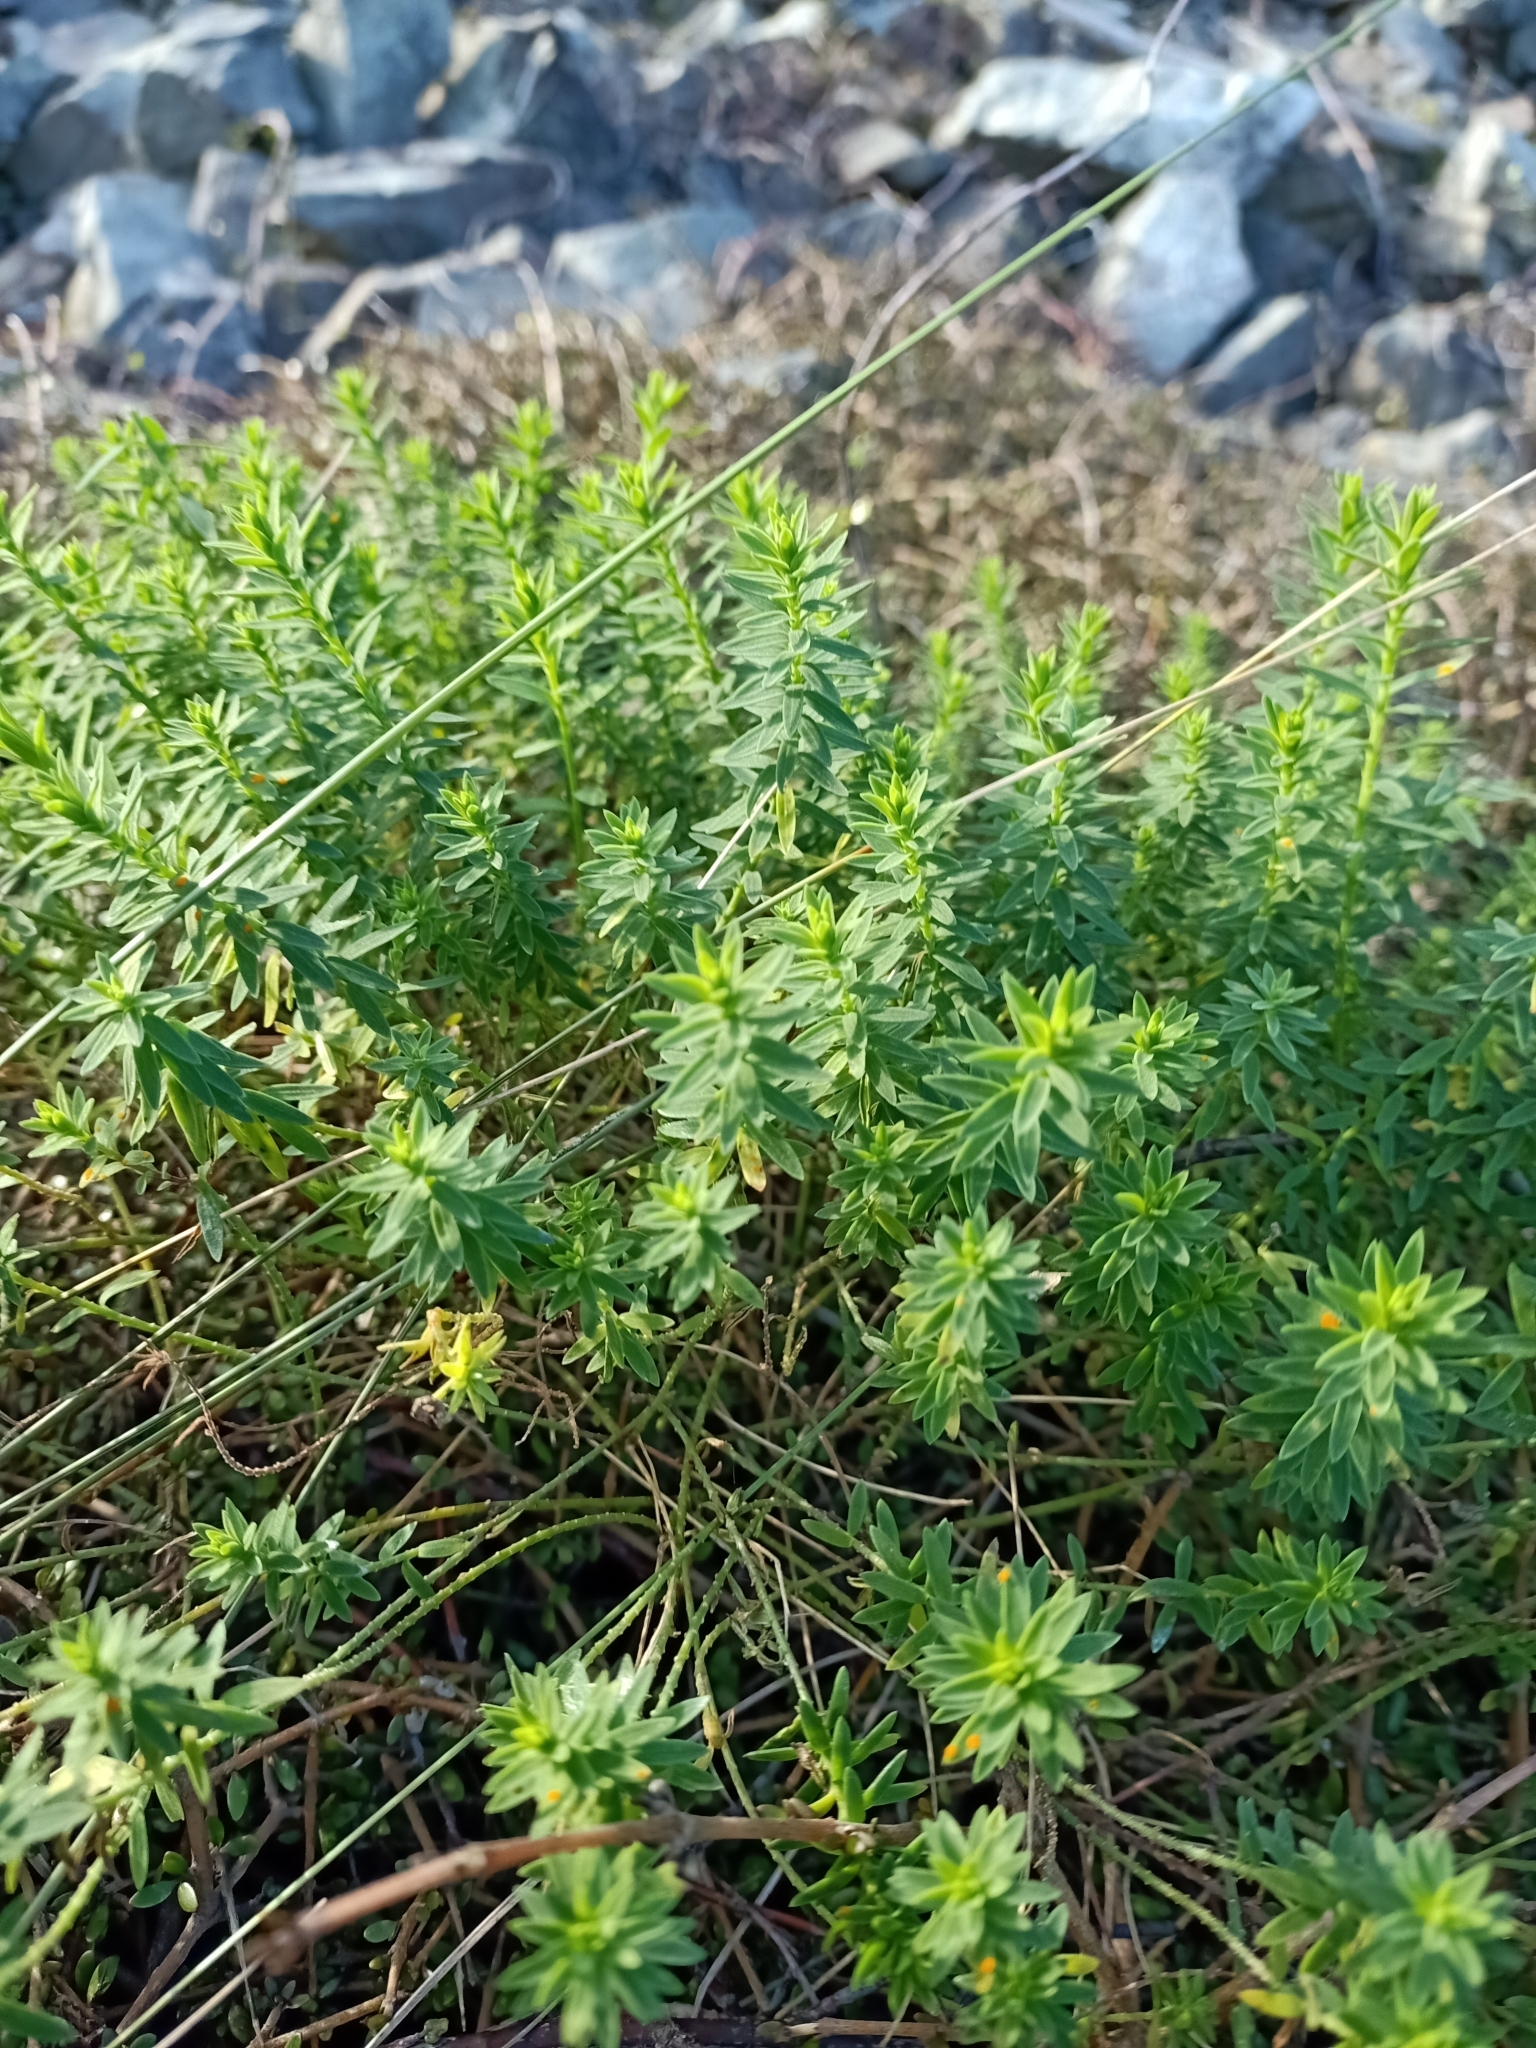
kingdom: Plantae
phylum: Tracheophyta
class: Magnoliopsida
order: Malpighiales
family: Linaceae
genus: Linum
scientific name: Linum monogynum
